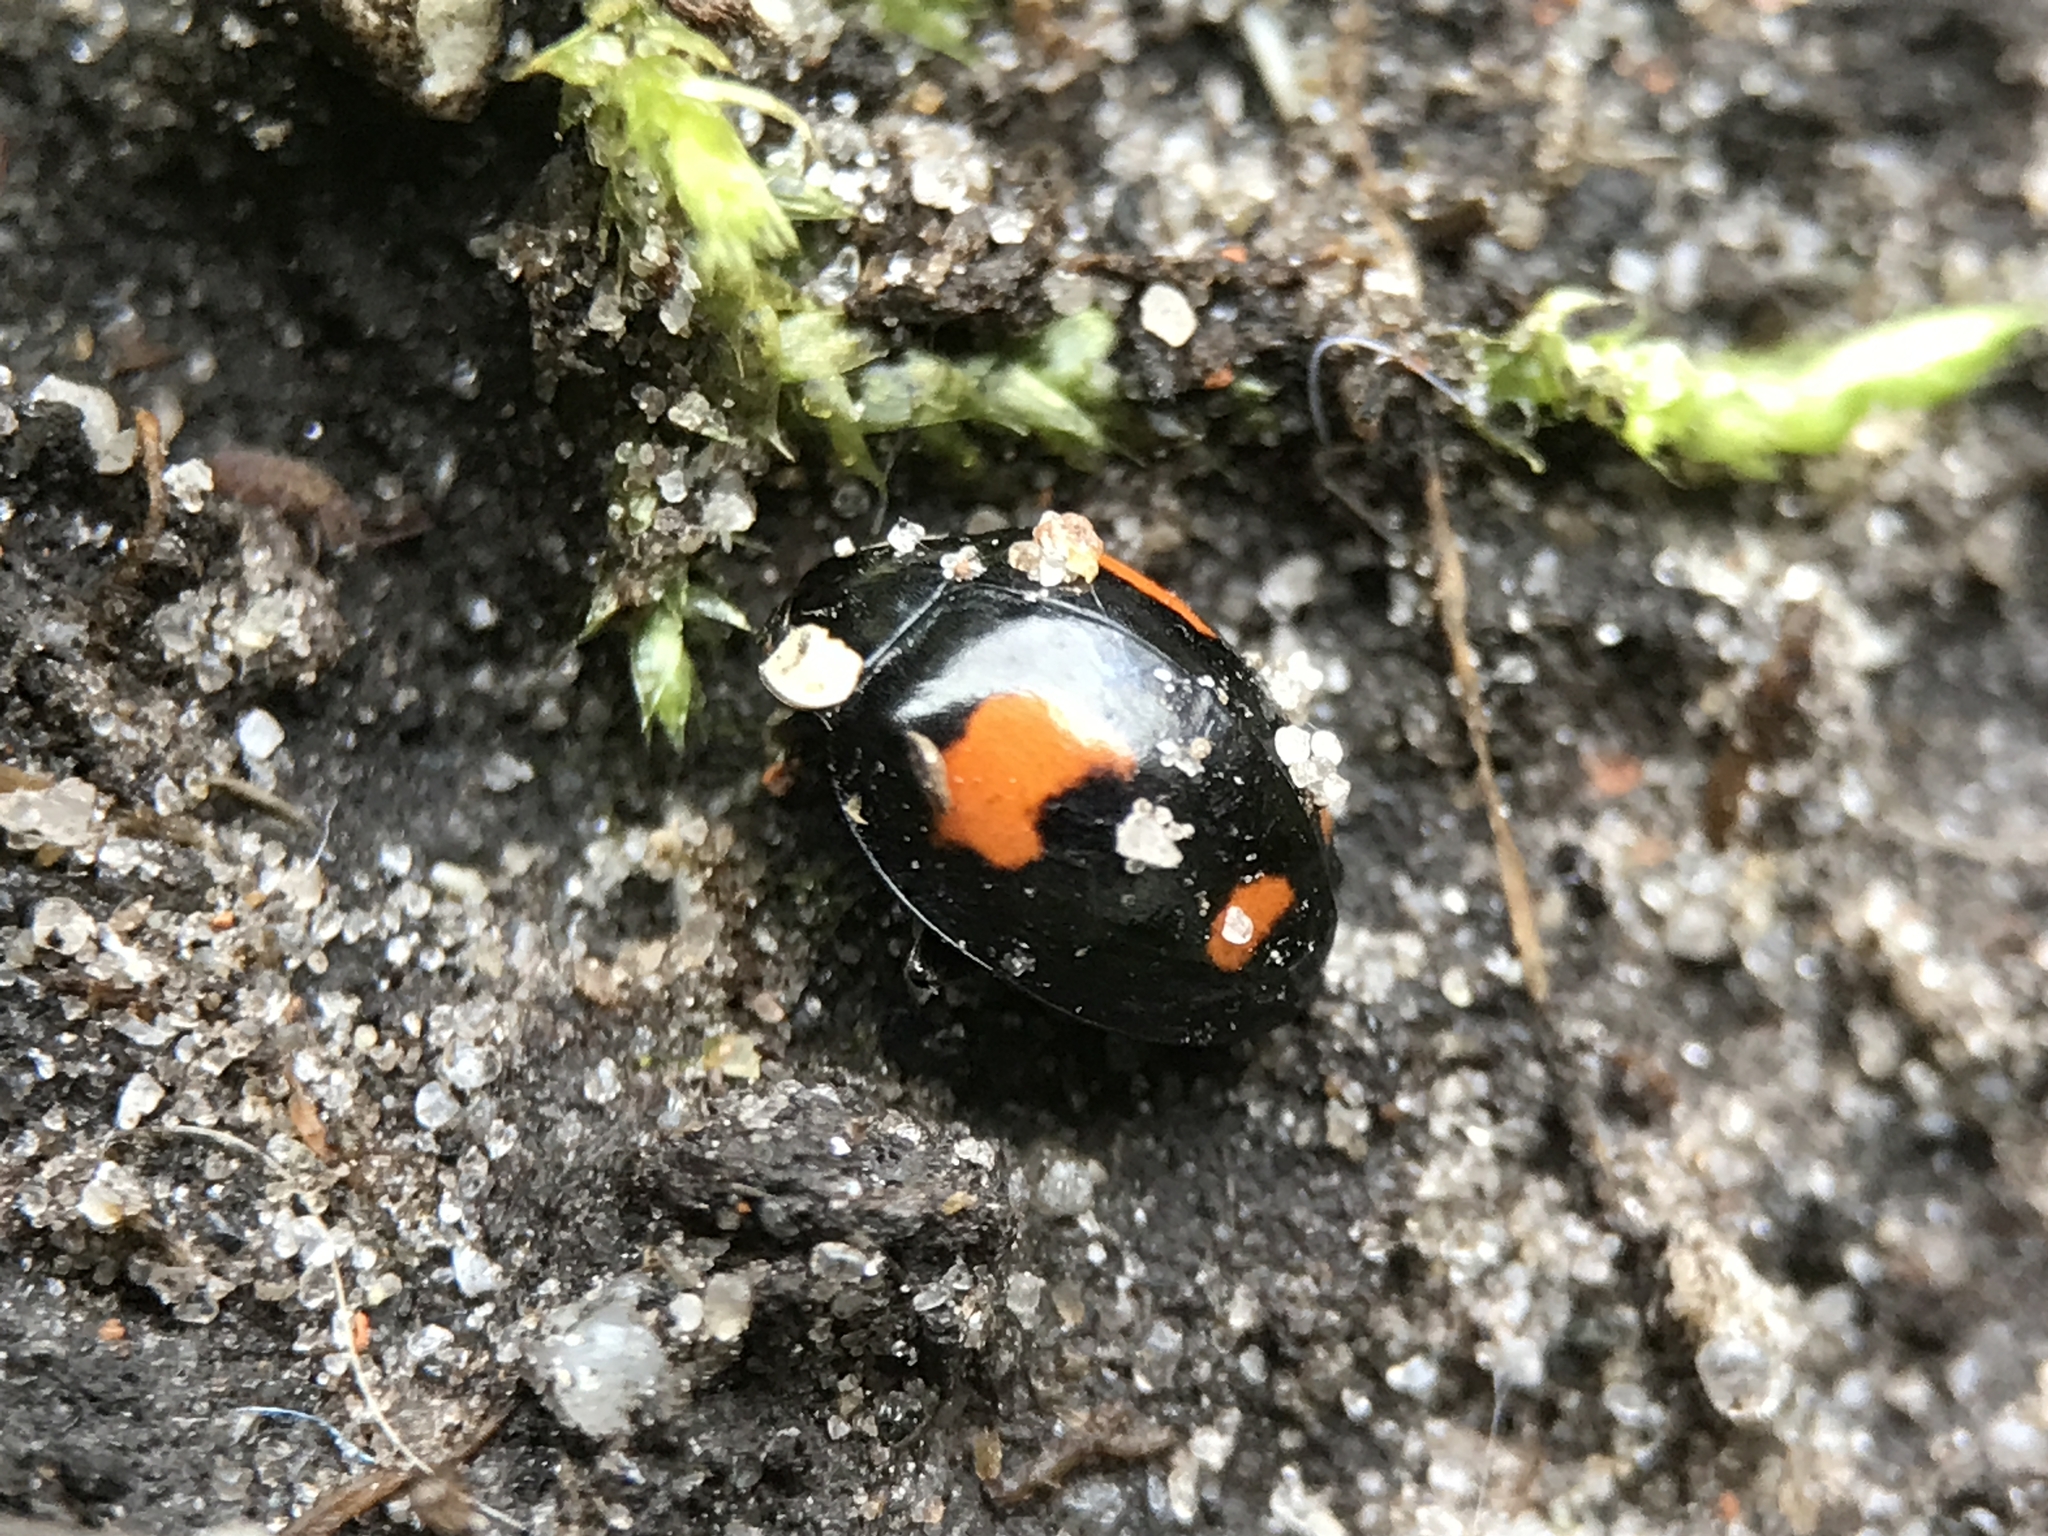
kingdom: Animalia
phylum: Arthropoda
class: Insecta
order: Coleoptera
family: Coccinellidae
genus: Harmonia
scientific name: Harmonia axyridis
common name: Harlequin ladybird
